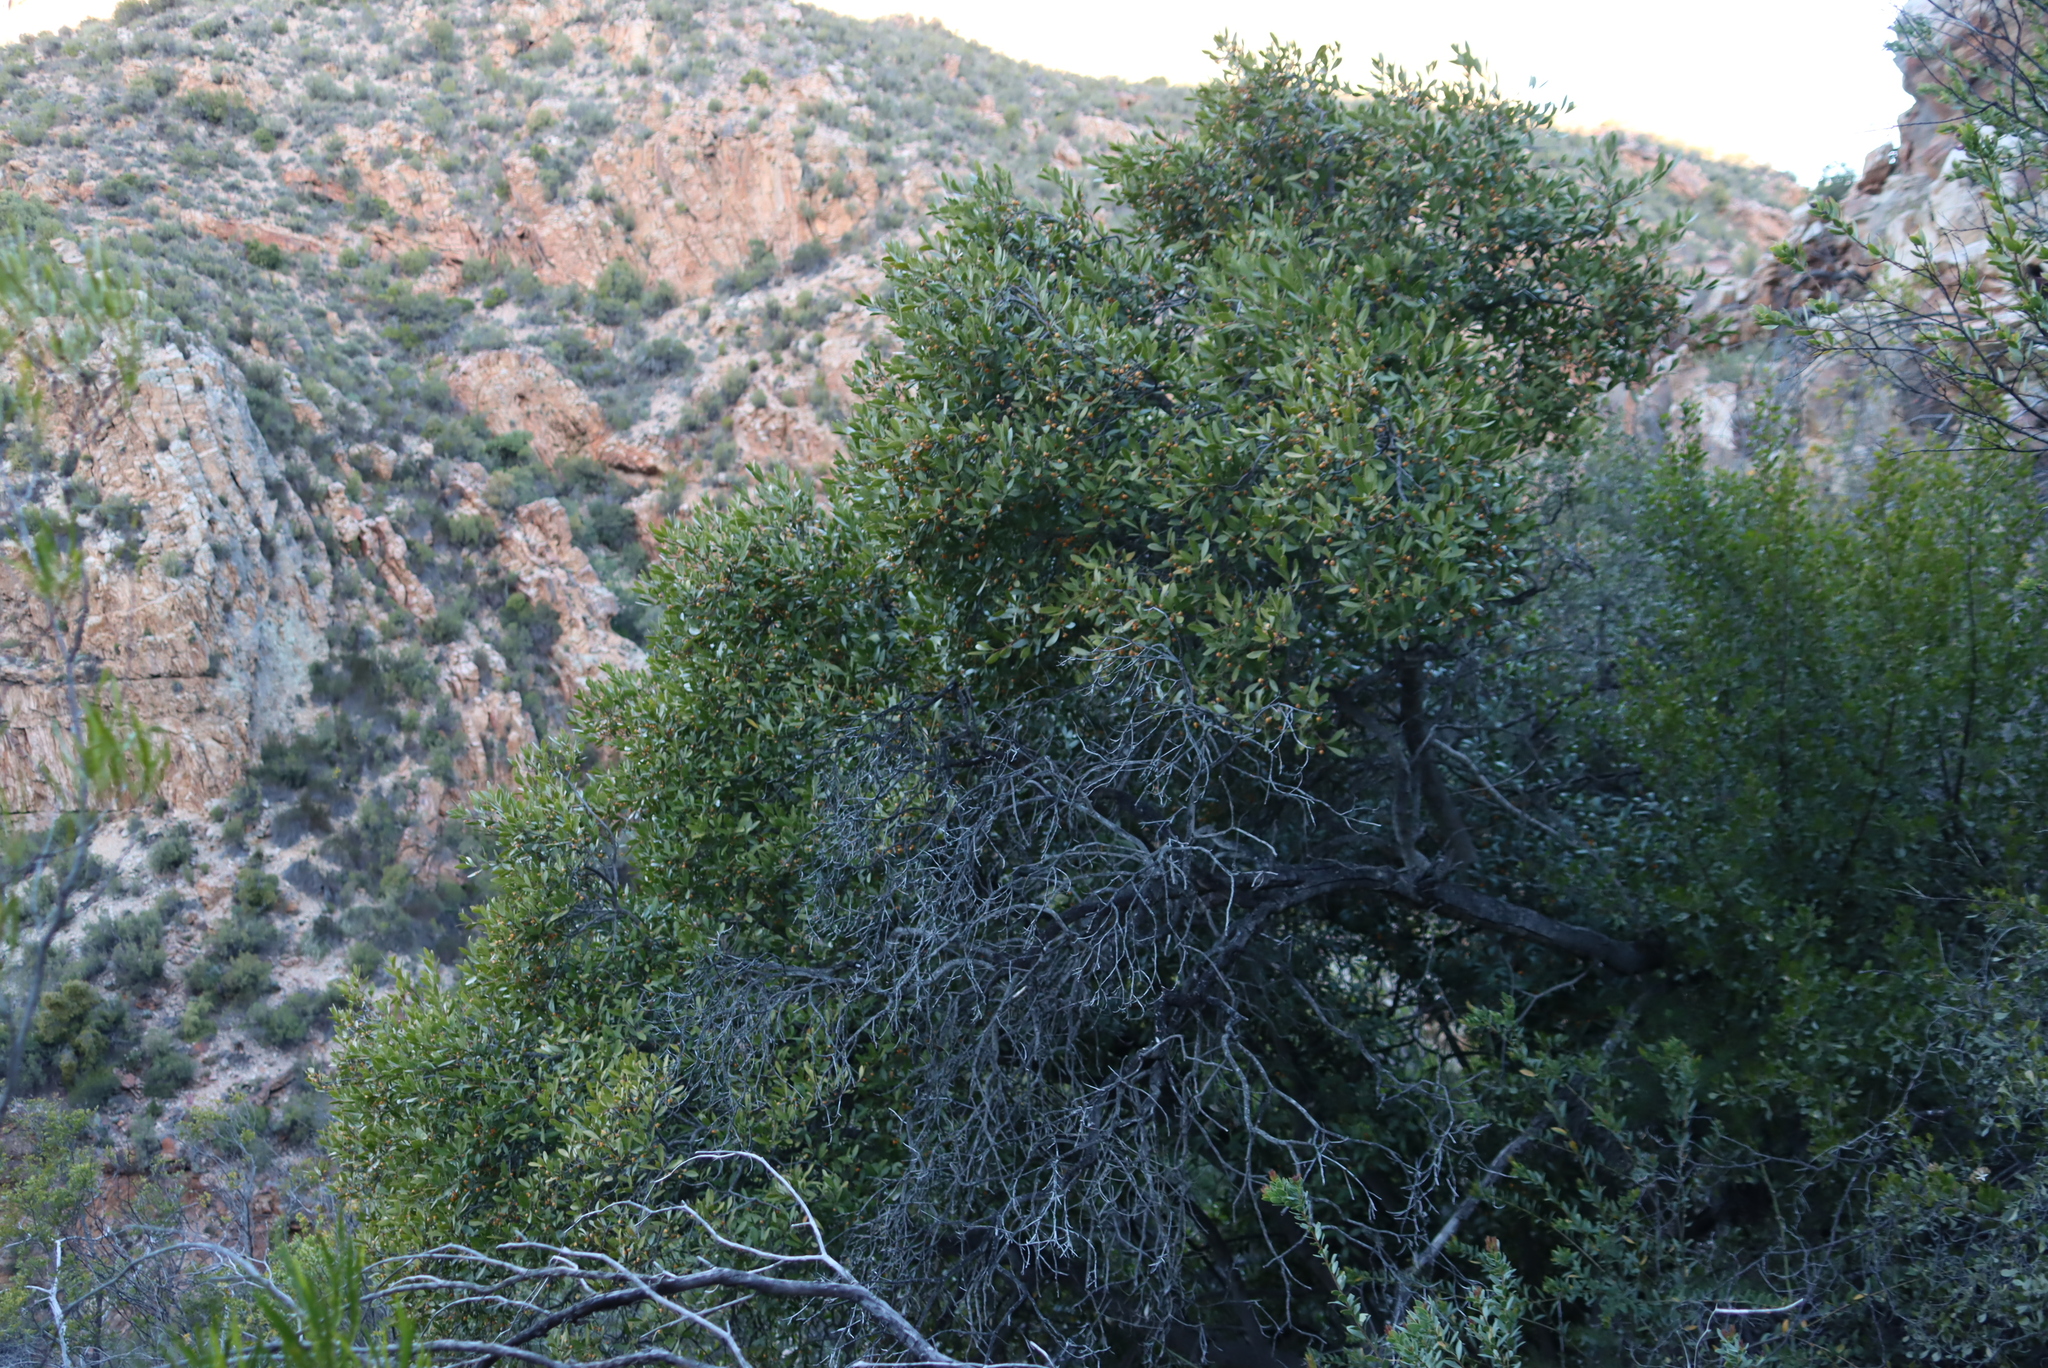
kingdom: Plantae
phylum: Tracheophyta
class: Magnoliopsida
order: Celastrales
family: Celastraceae
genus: Pterocelastrus
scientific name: Pterocelastrus tricuspidatus
